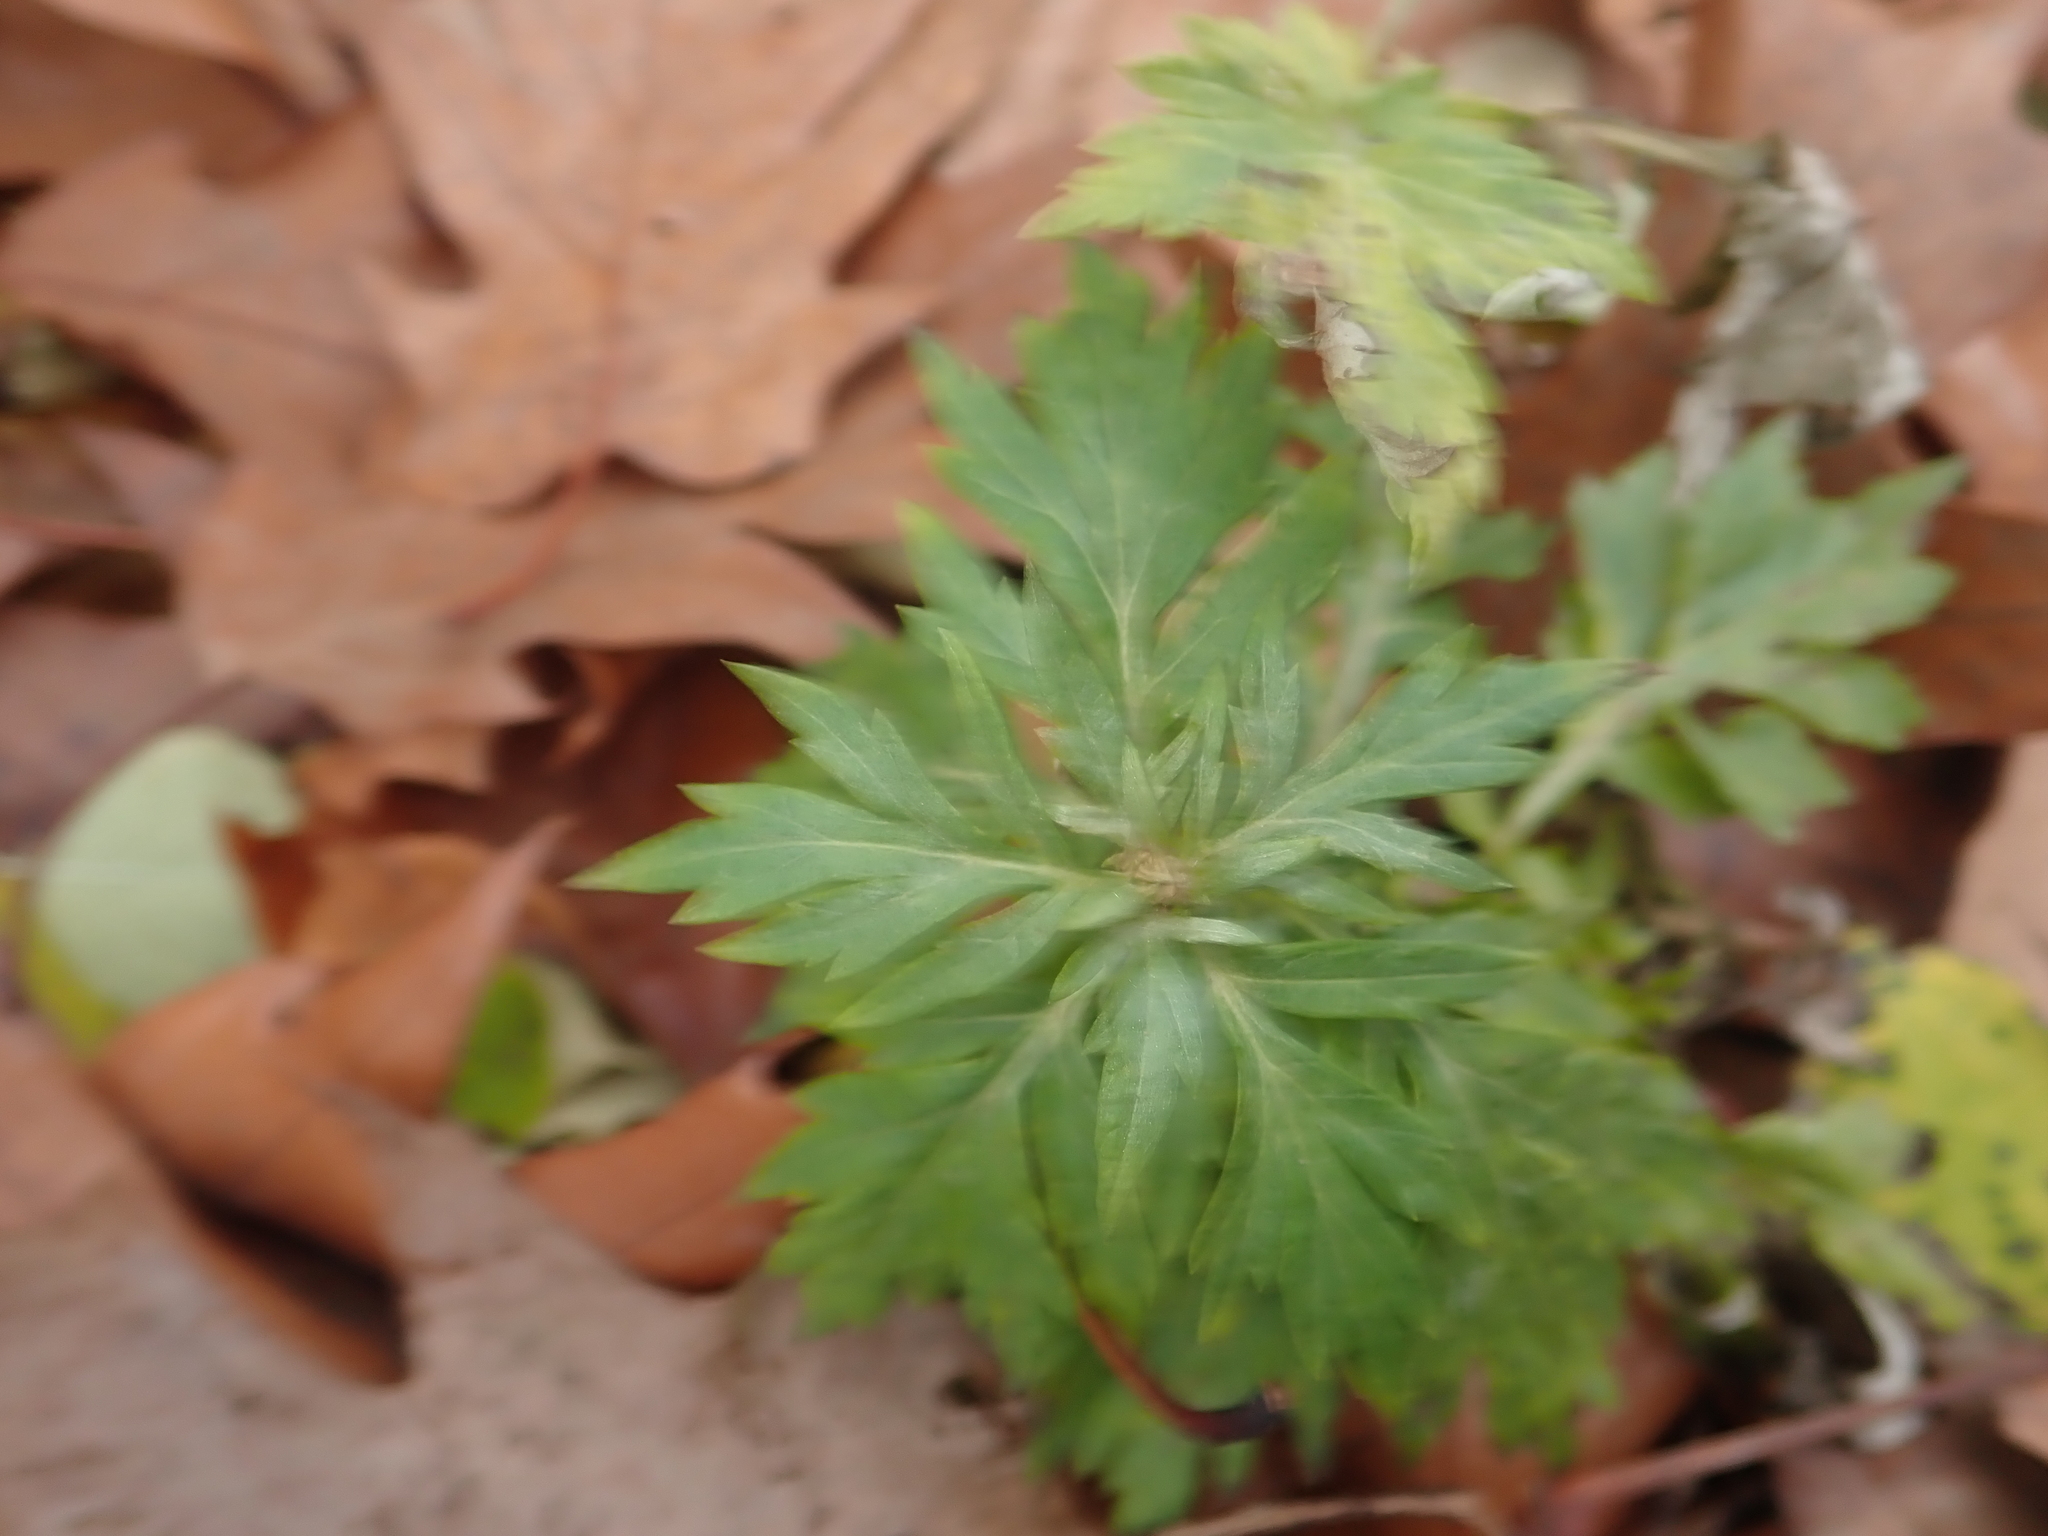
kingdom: Plantae
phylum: Tracheophyta
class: Magnoliopsida
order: Asterales
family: Asteraceae
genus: Artemisia
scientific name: Artemisia vulgaris
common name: Mugwort
